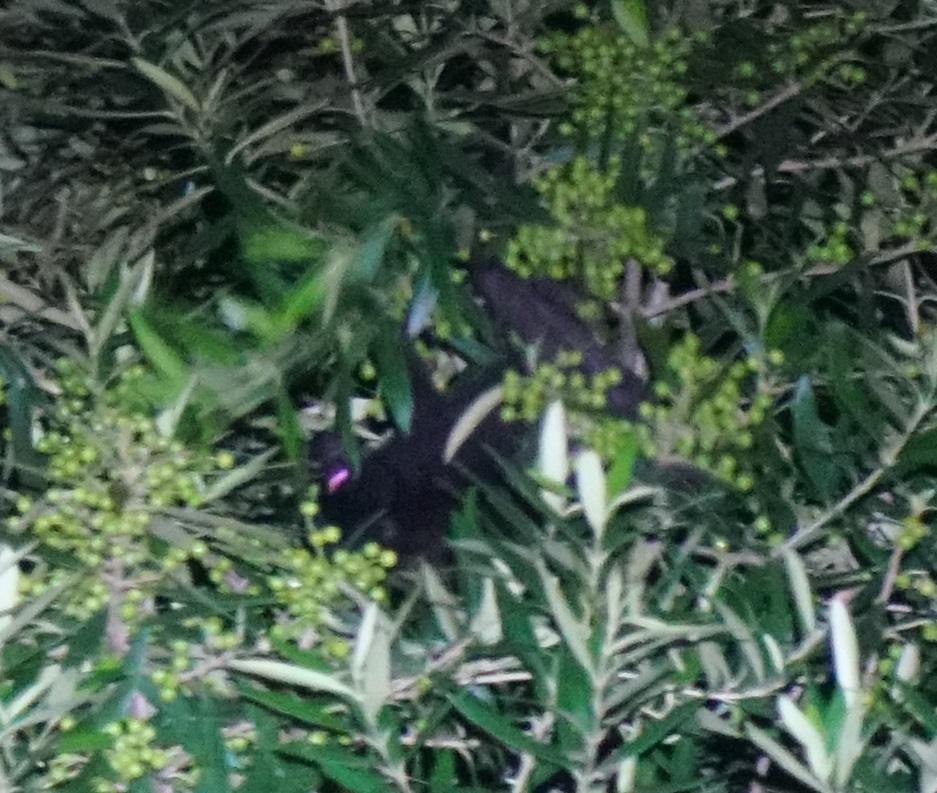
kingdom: Animalia
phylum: Chordata
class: Mammalia
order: Chiroptera
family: Pteropodidae
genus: Pteropus
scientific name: Pteropus alecto
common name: Black flying fox
